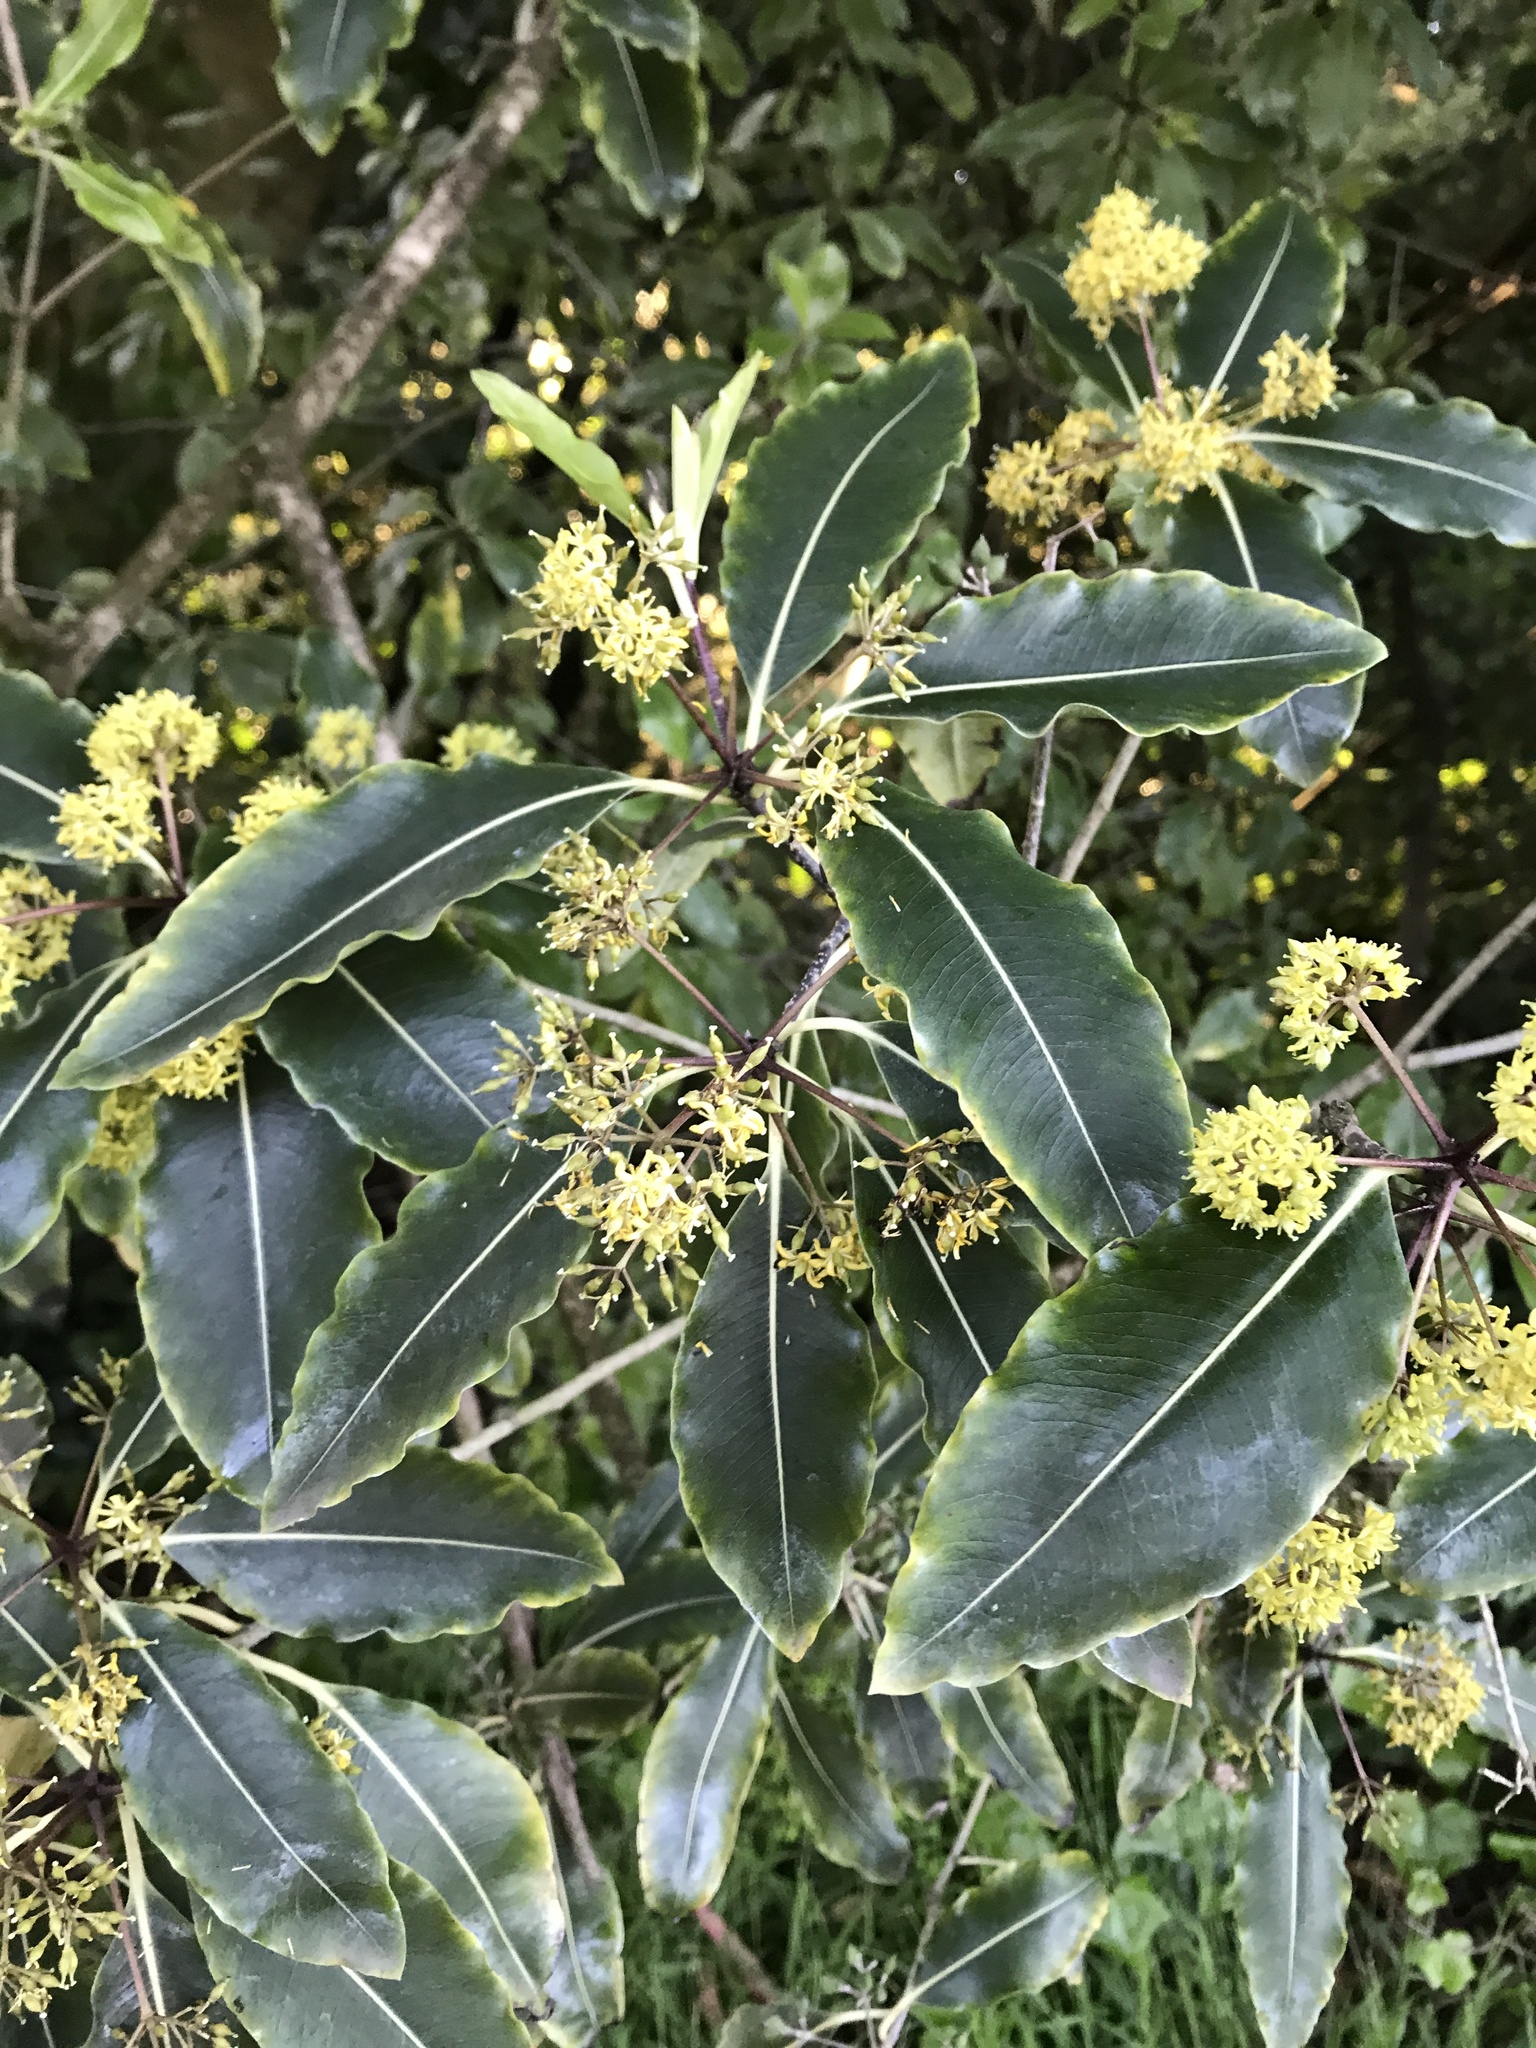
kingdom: Plantae
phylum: Tracheophyta
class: Magnoliopsida
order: Apiales
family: Pittosporaceae
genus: Pittosporum
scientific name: Pittosporum eugenioides
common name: Lemonwood
